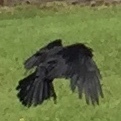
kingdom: Animalia
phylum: Chordata
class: Aves
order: Passeriformes
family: Corvidae
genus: Corvus
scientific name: Corvus brachyrhynchos
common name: American crow
